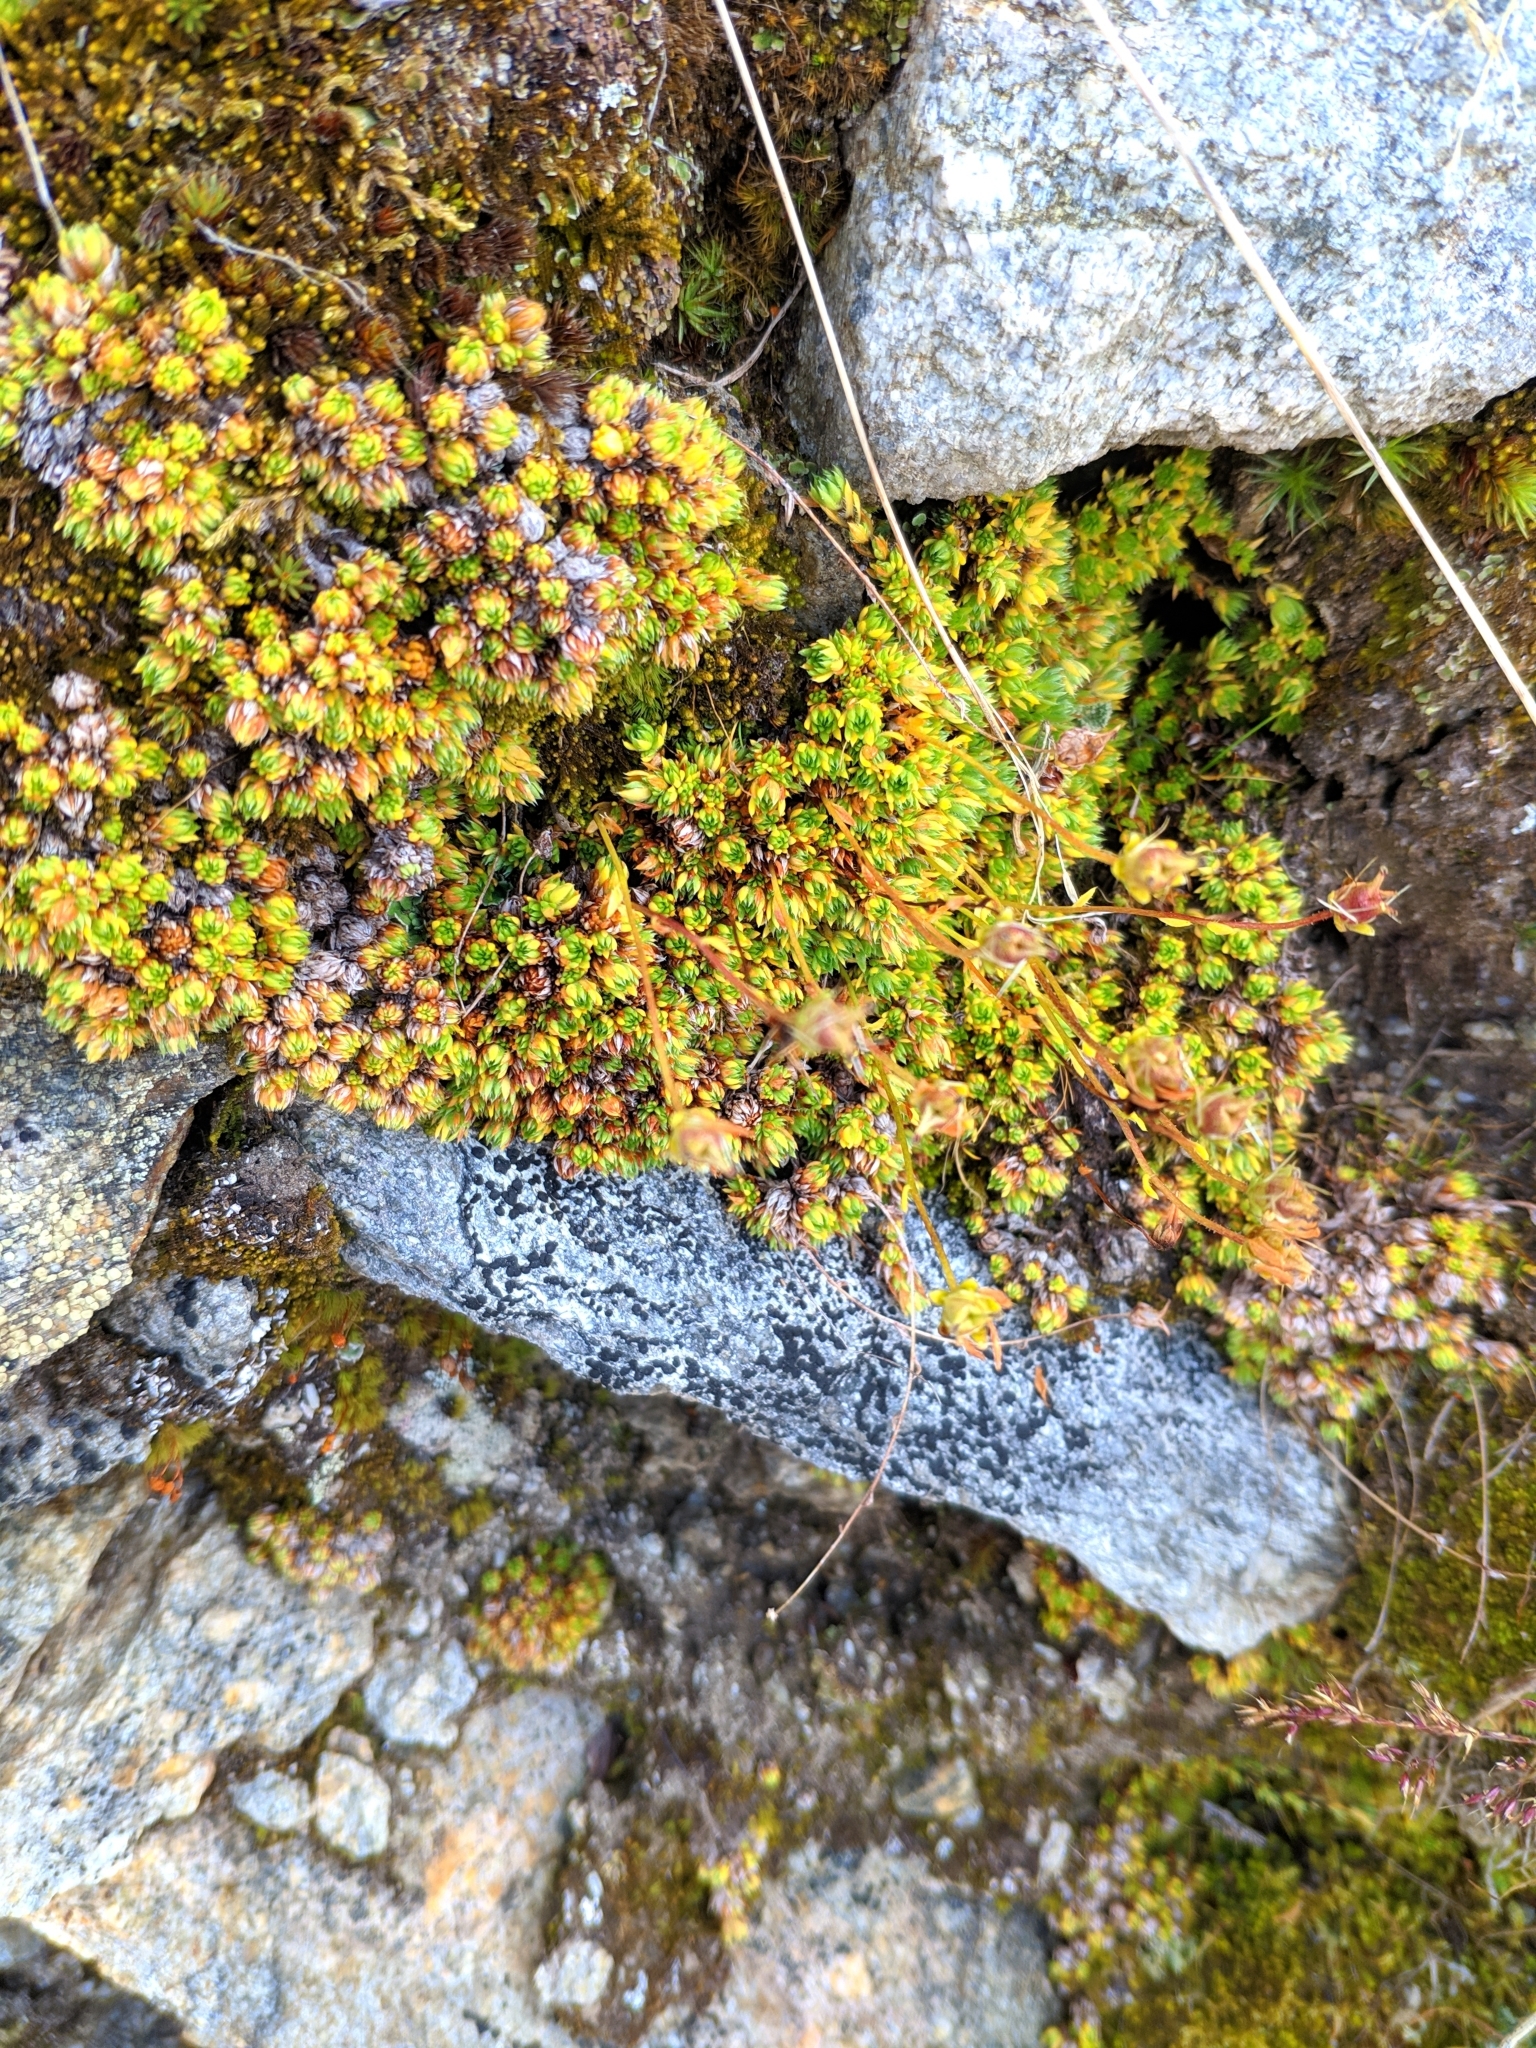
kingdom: Plantae
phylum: Tracheophyta
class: Magnoliopsida
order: Saxifragales
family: Saxifragaceae
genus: Saxifraga
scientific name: Saxifraga bryoides
